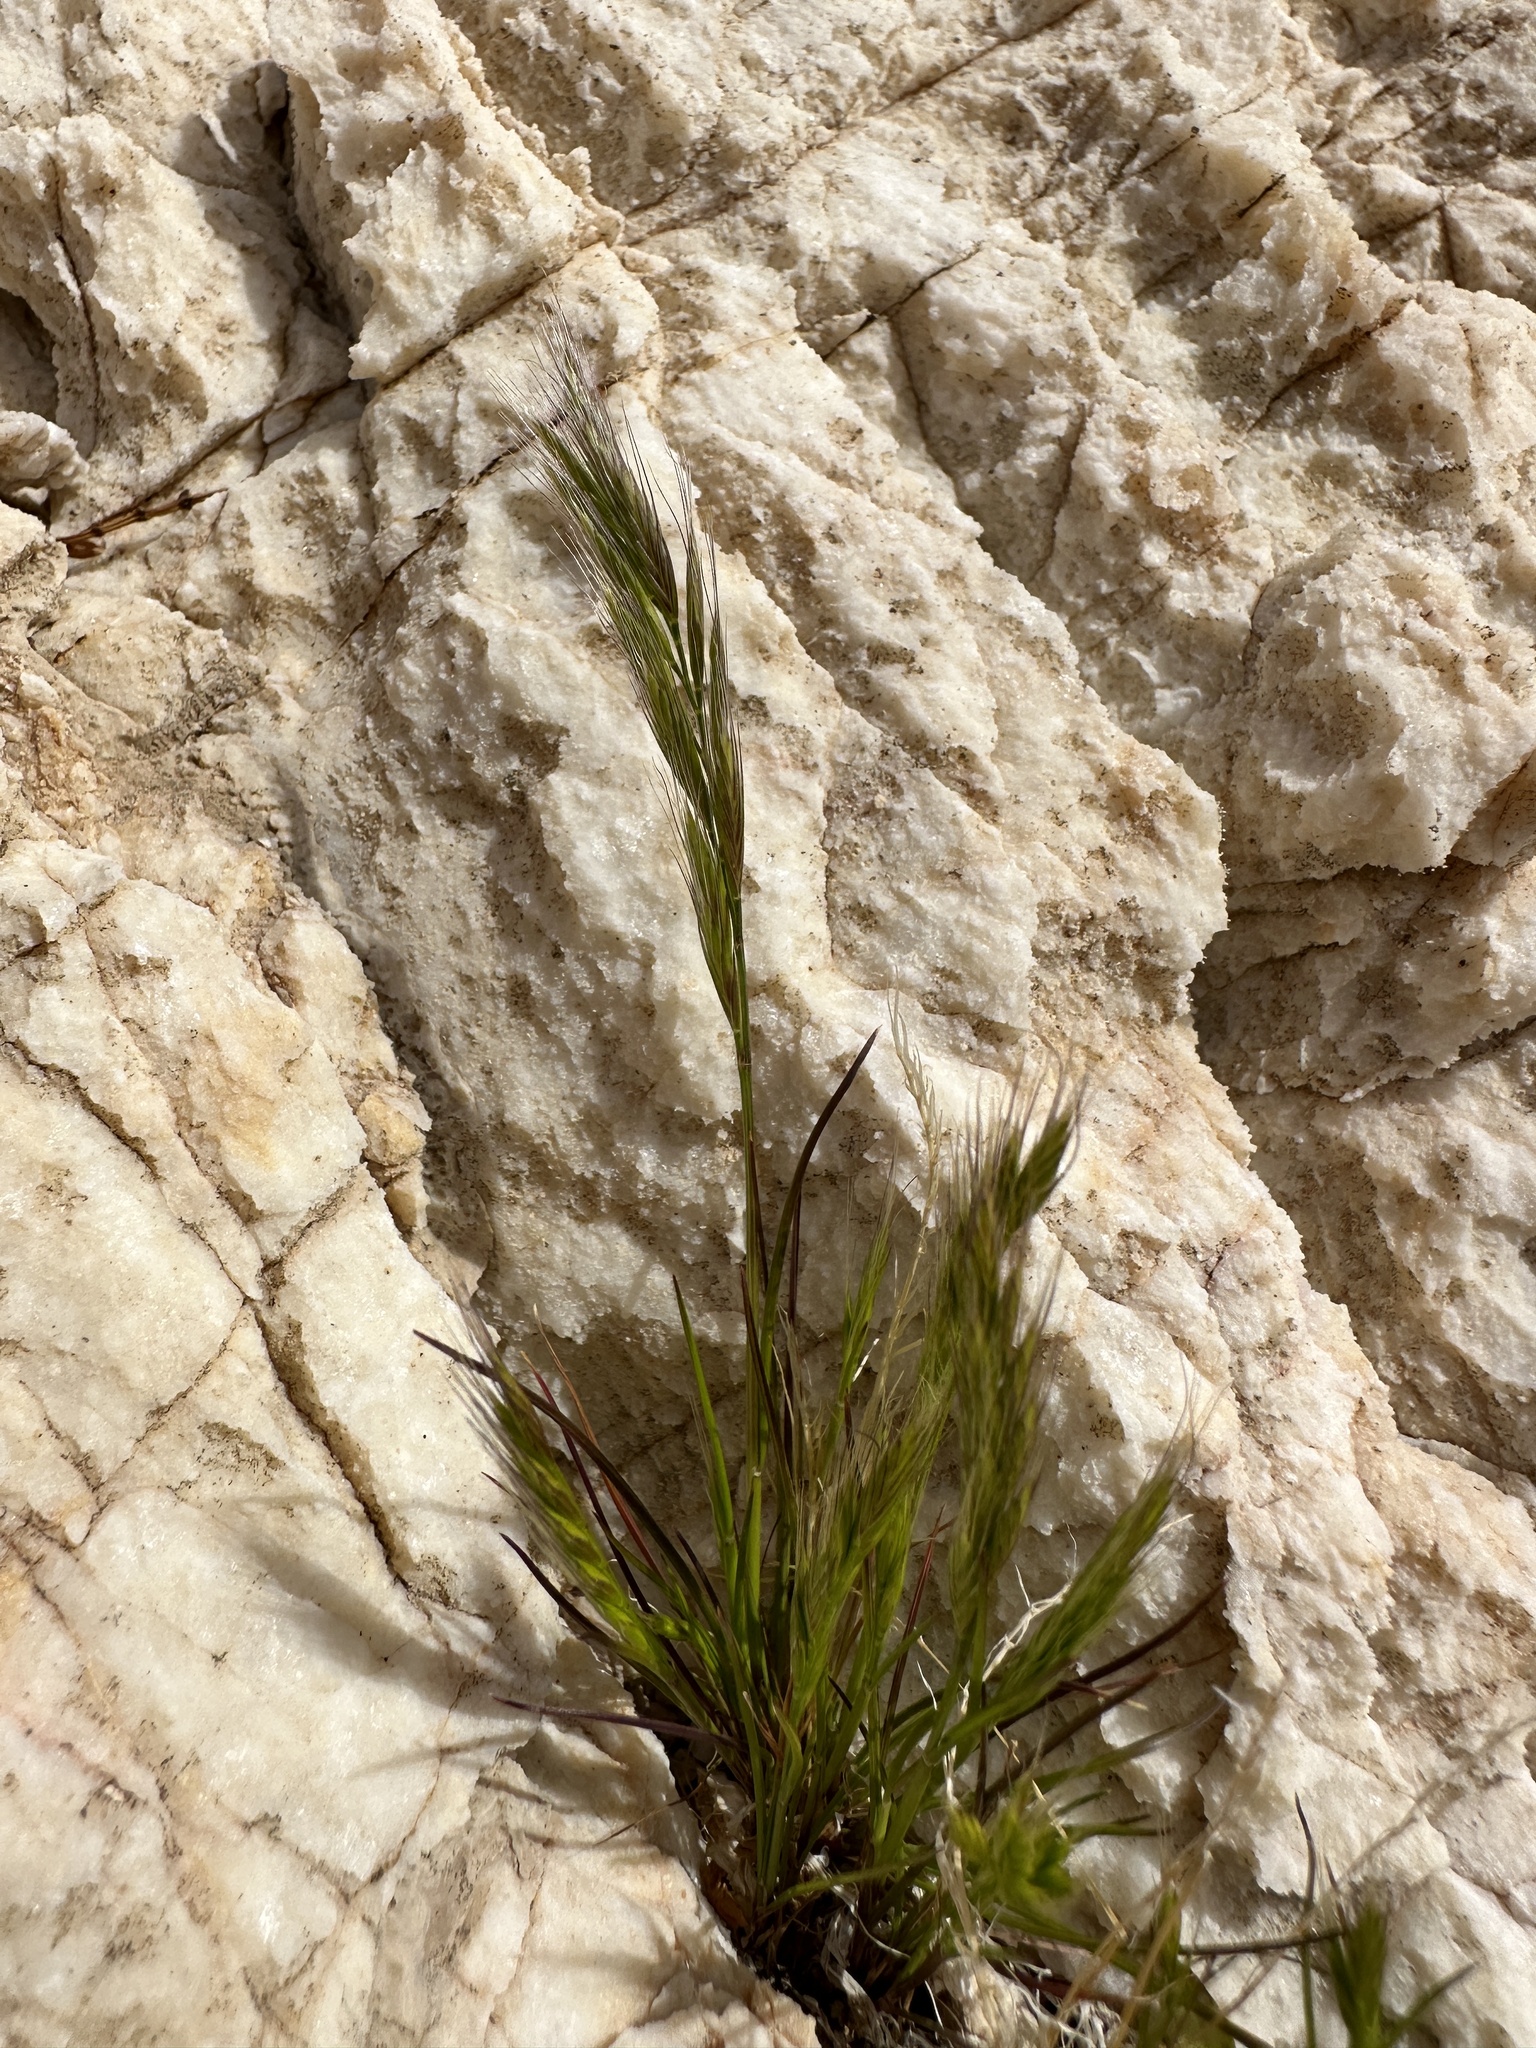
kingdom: Plantae
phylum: Tracheophyta
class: Liliopsida
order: Poales
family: Poaceae
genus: Festuca
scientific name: Festuca octoflora
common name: Sixweeks grass
